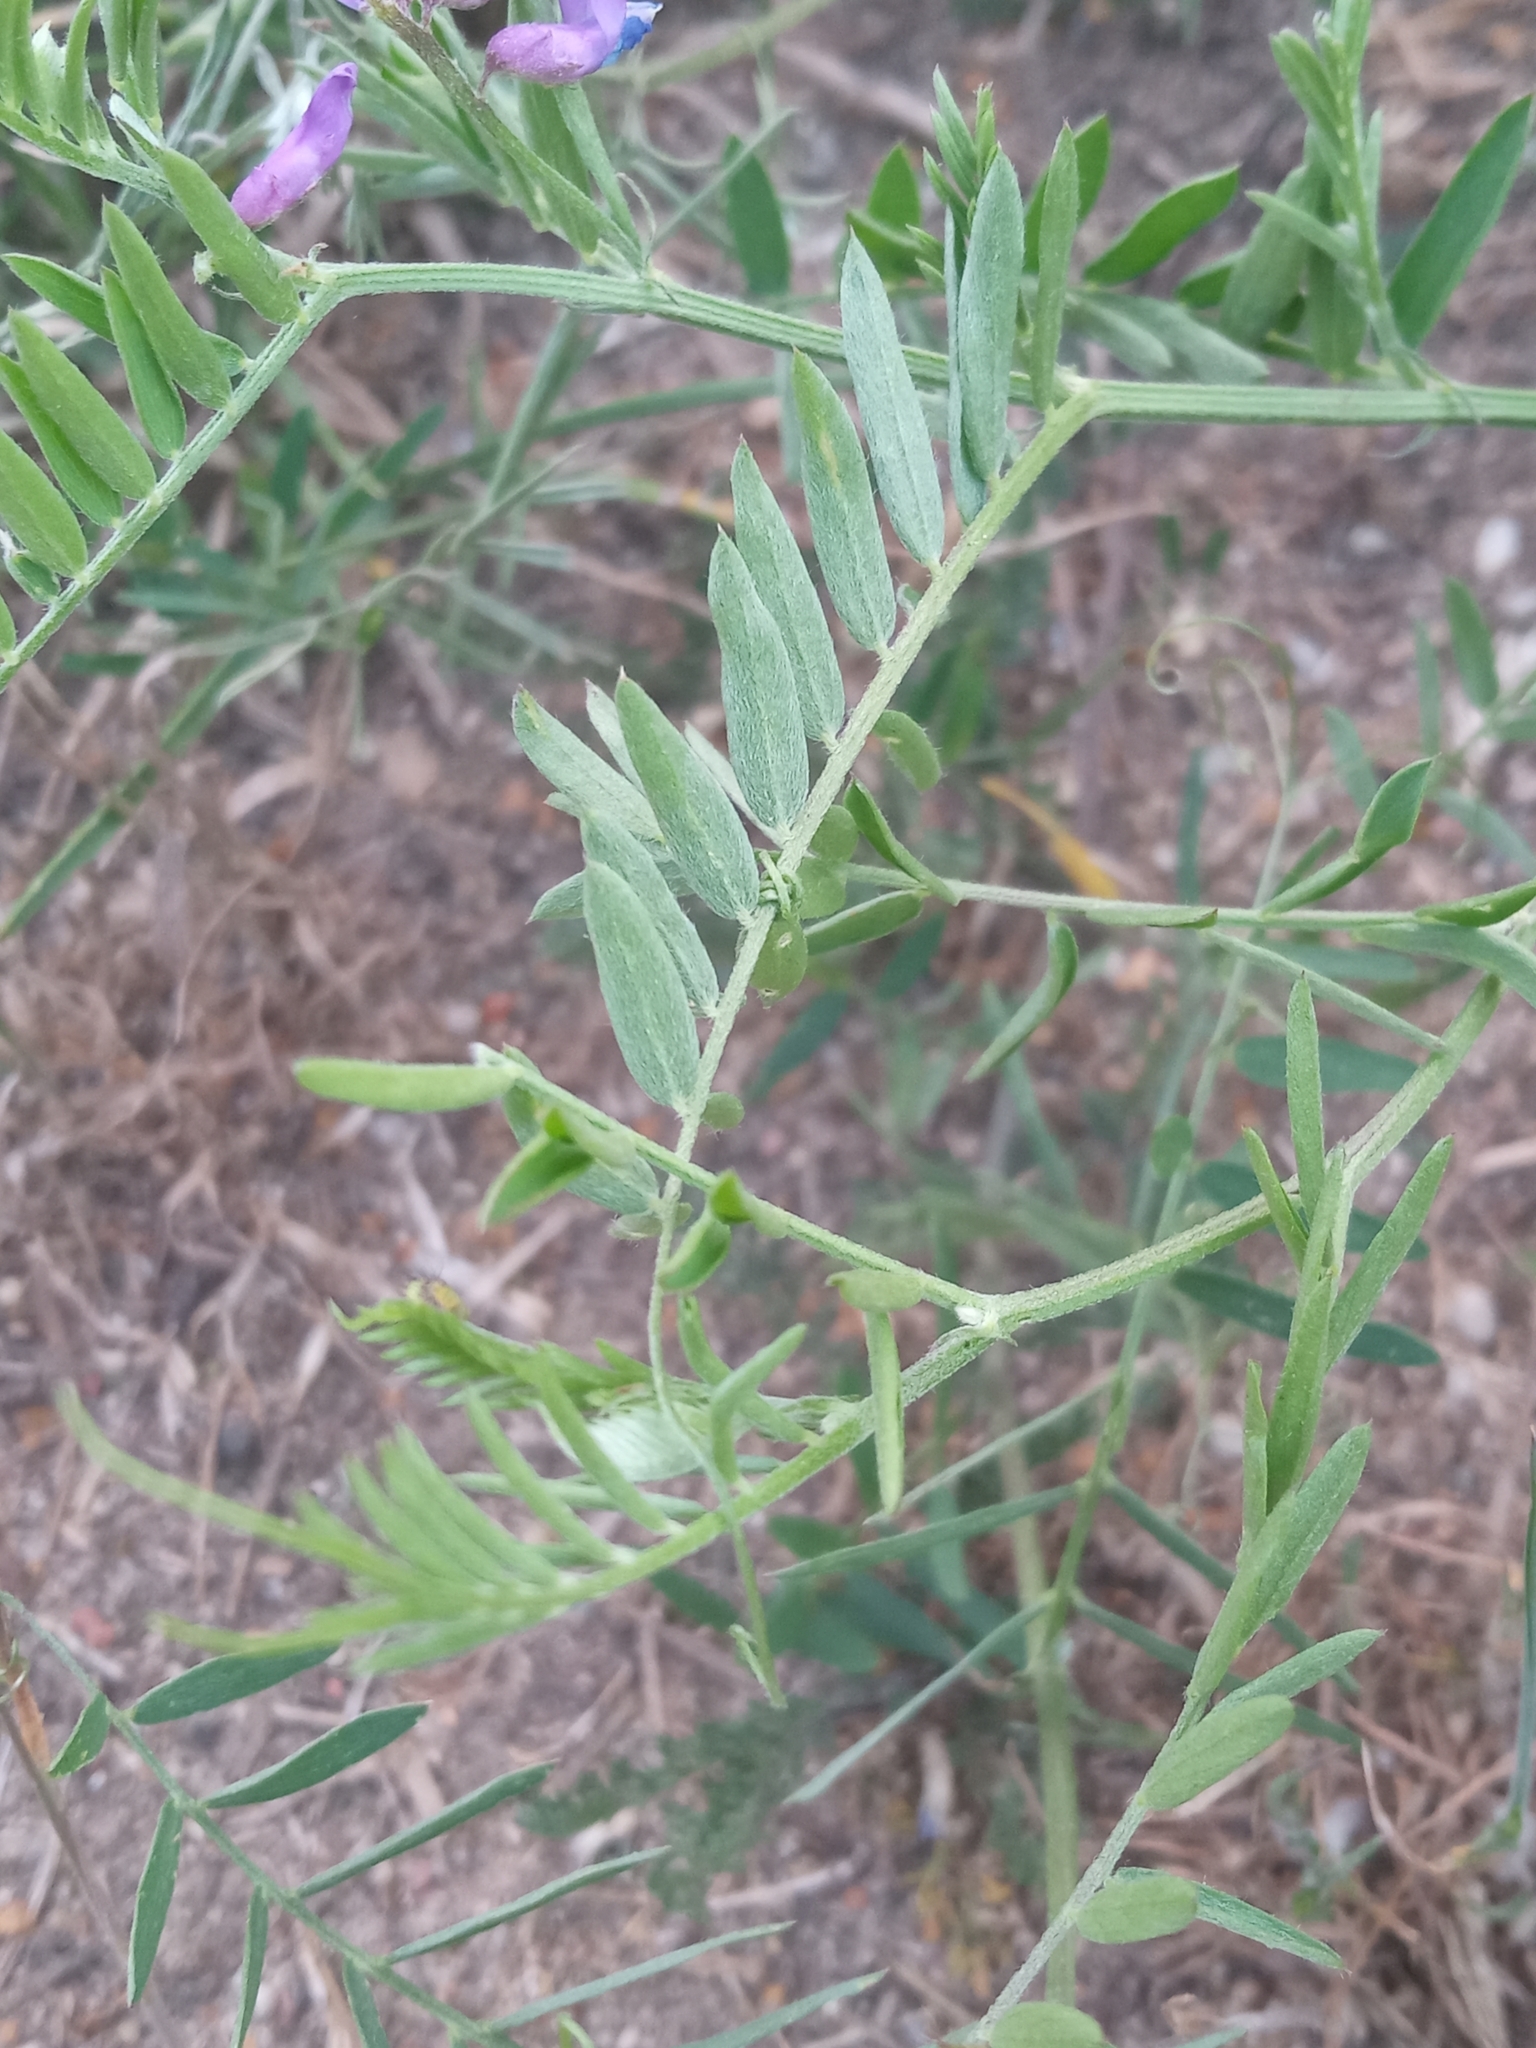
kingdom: Plantae
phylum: Tracheophyta
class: Magnoliopsida
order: Fabales
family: Fabaceae
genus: Vicia
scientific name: Vicia cracca
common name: Bird vetch
